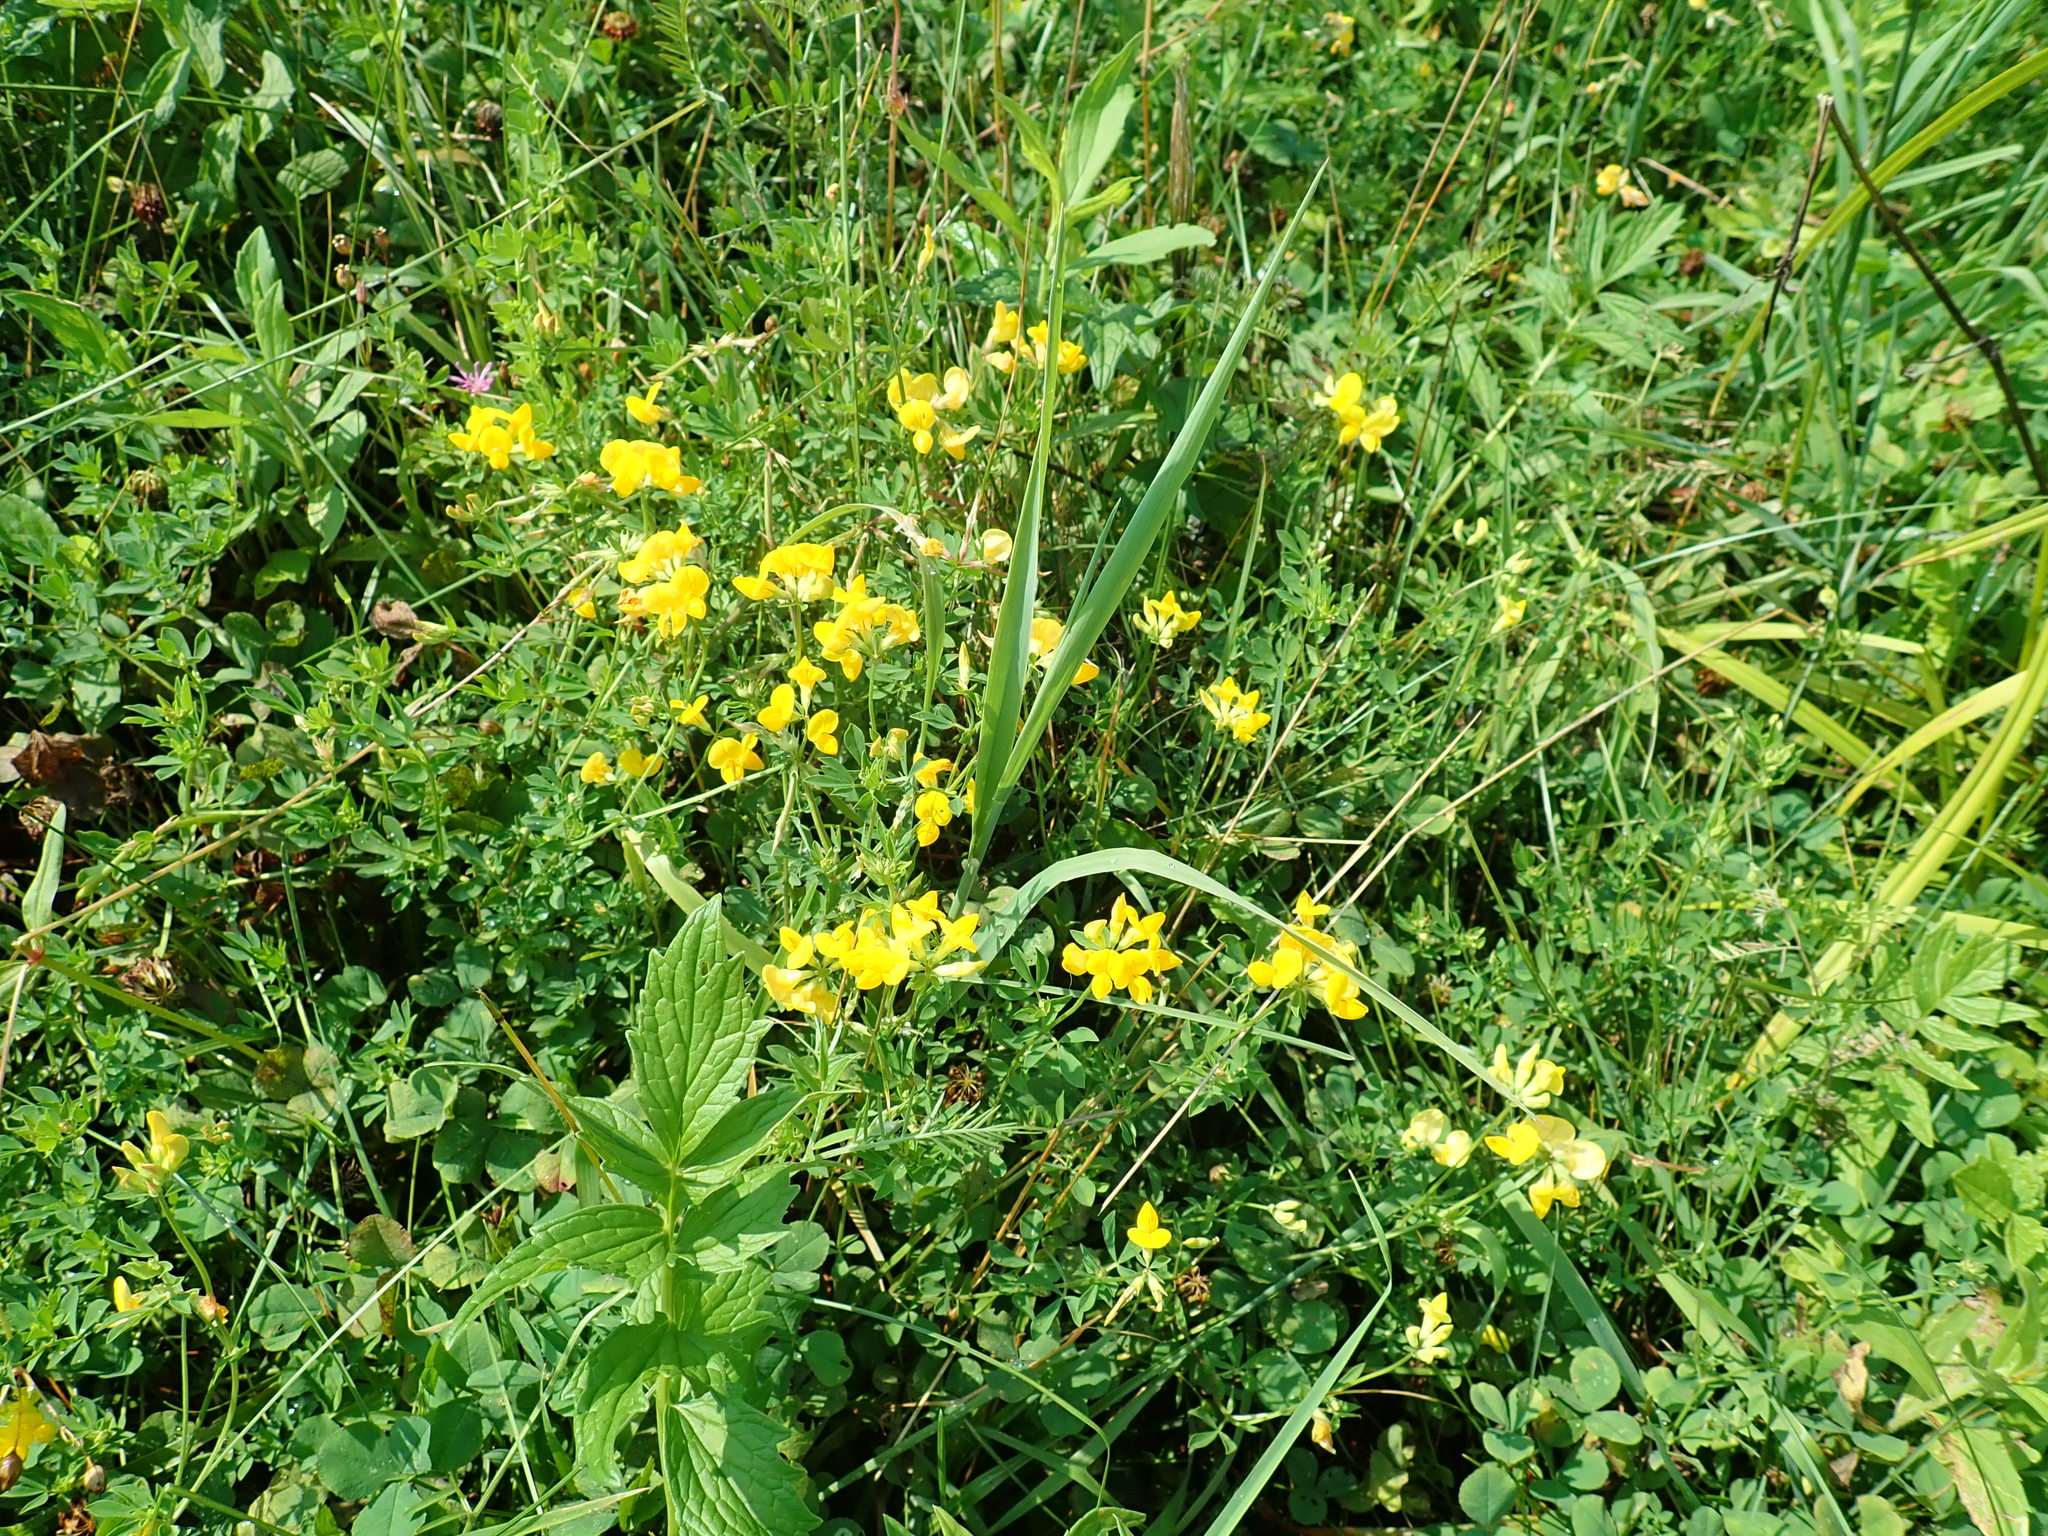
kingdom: Plantae
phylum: Tracheophyta
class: Magnoliopsida
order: Fabales
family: Fabaceae
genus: Lotus
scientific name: Lotus corniculatus
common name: Common bird's-foot-trefoil
